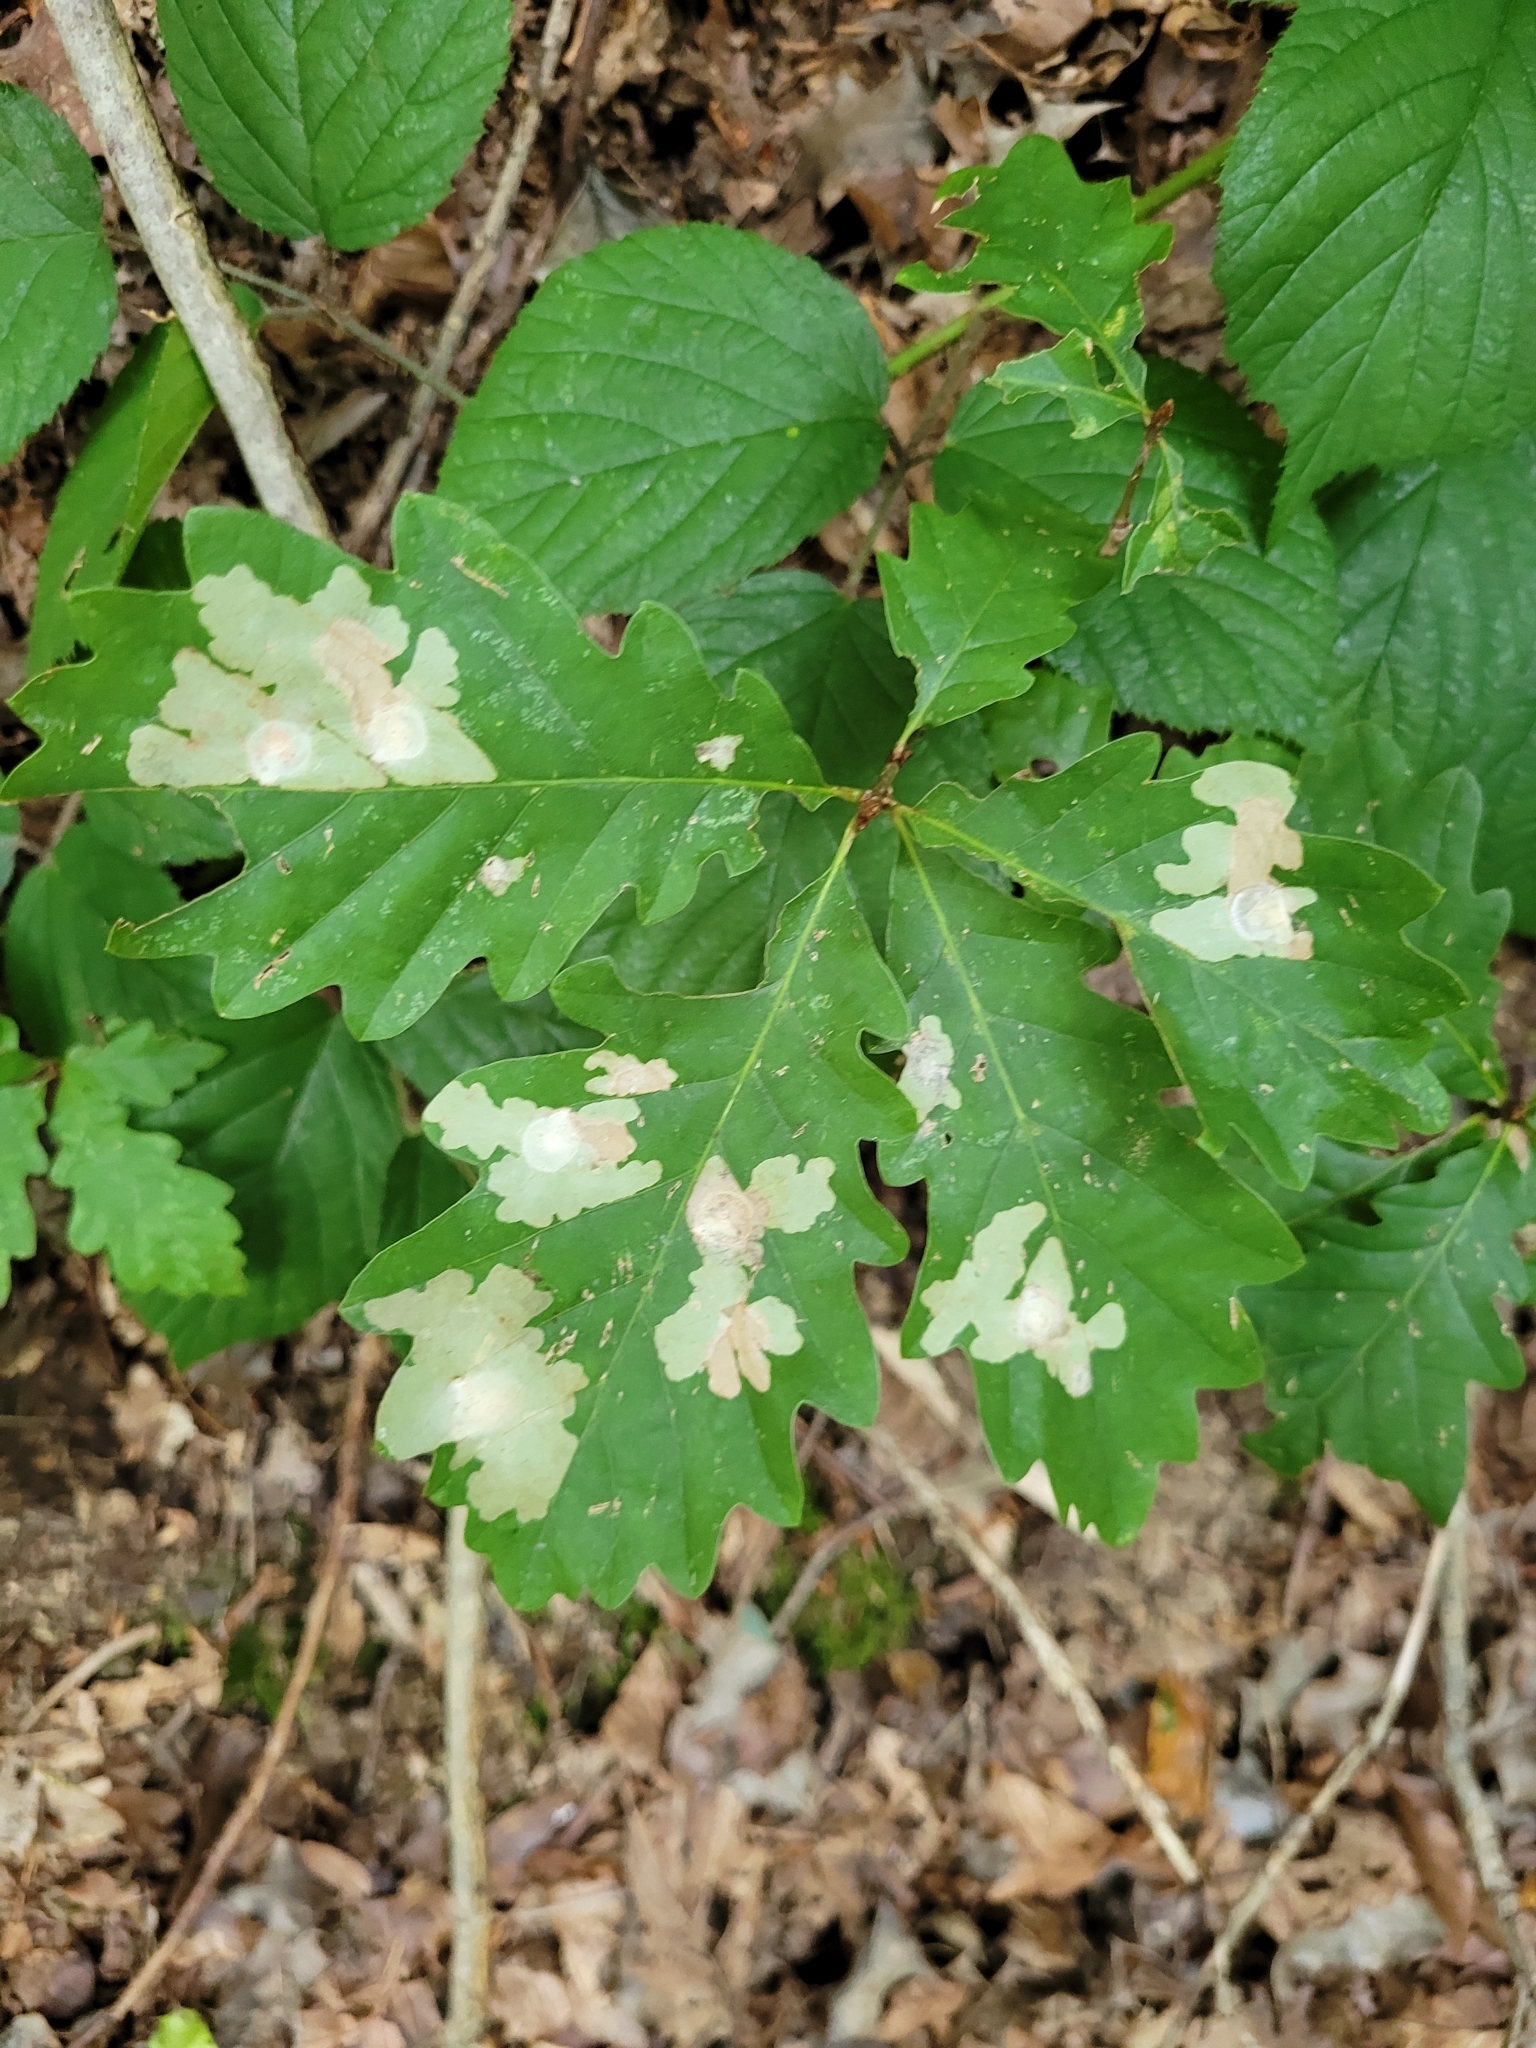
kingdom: Animalia
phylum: Arthropoda
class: Insecta
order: Lepidoptera
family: Tischeriidae
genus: Tischeria
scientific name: Tischeria ekebladella
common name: Oak carl
